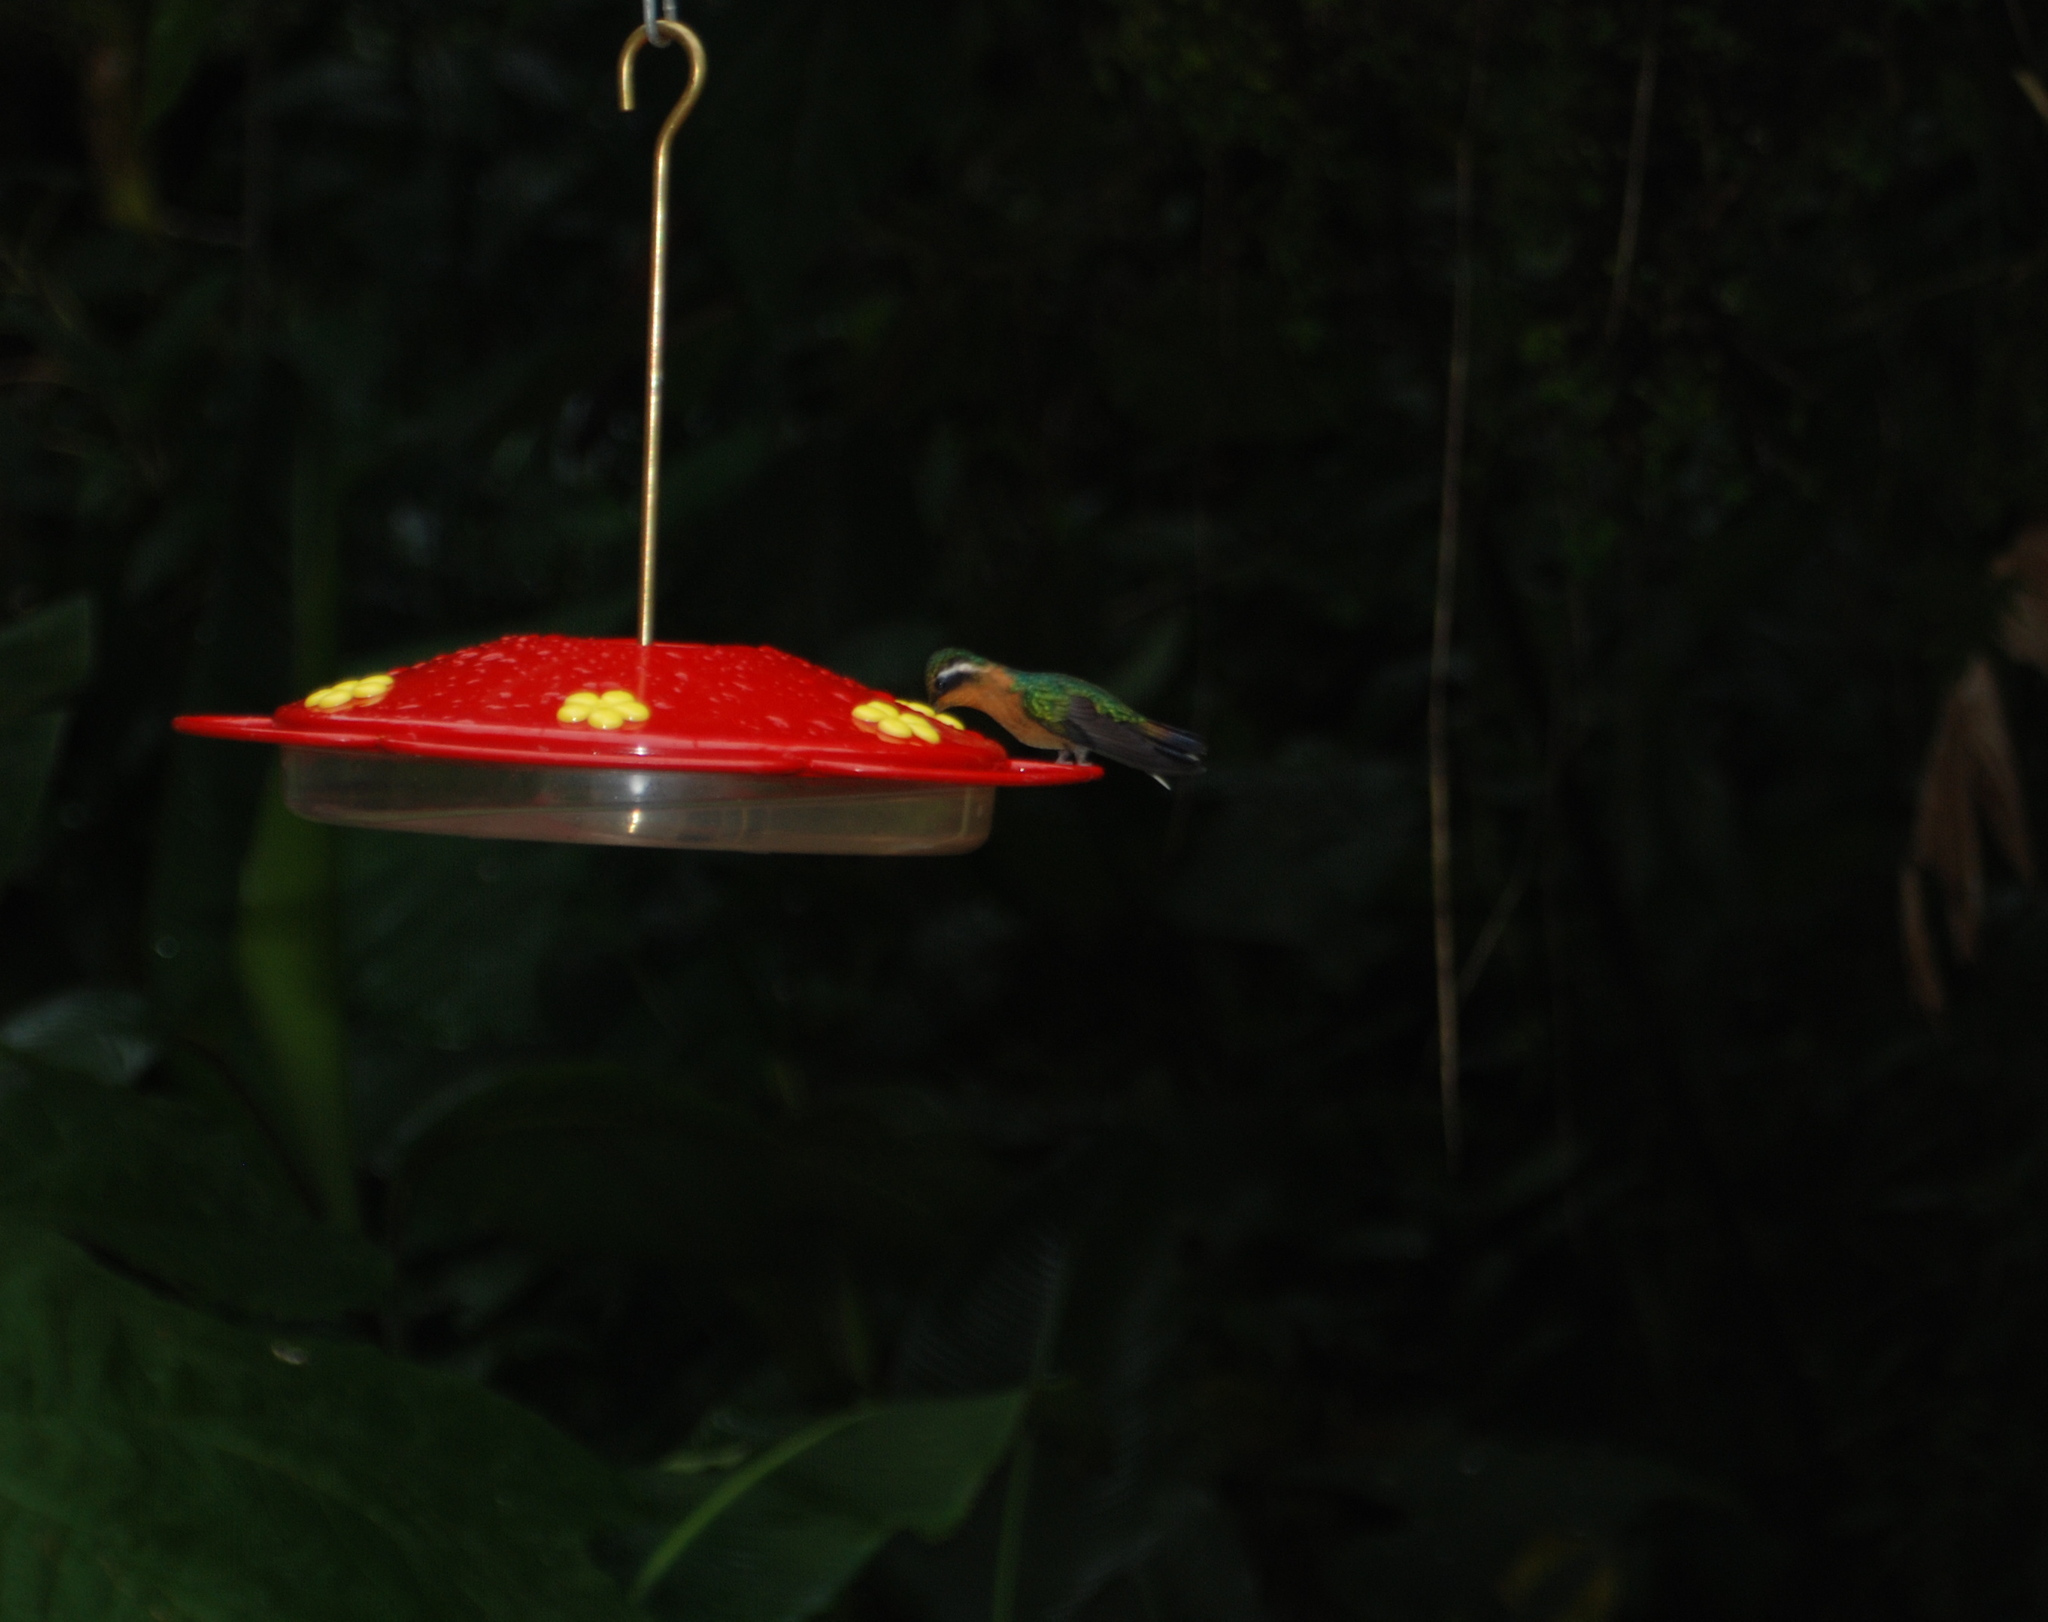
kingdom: Animalia
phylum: Chordata
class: Aves
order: Apodiformes
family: Trochilidae
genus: Lampornis
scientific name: Lampornis calolaemus
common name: Purple-throated mountain-gem
